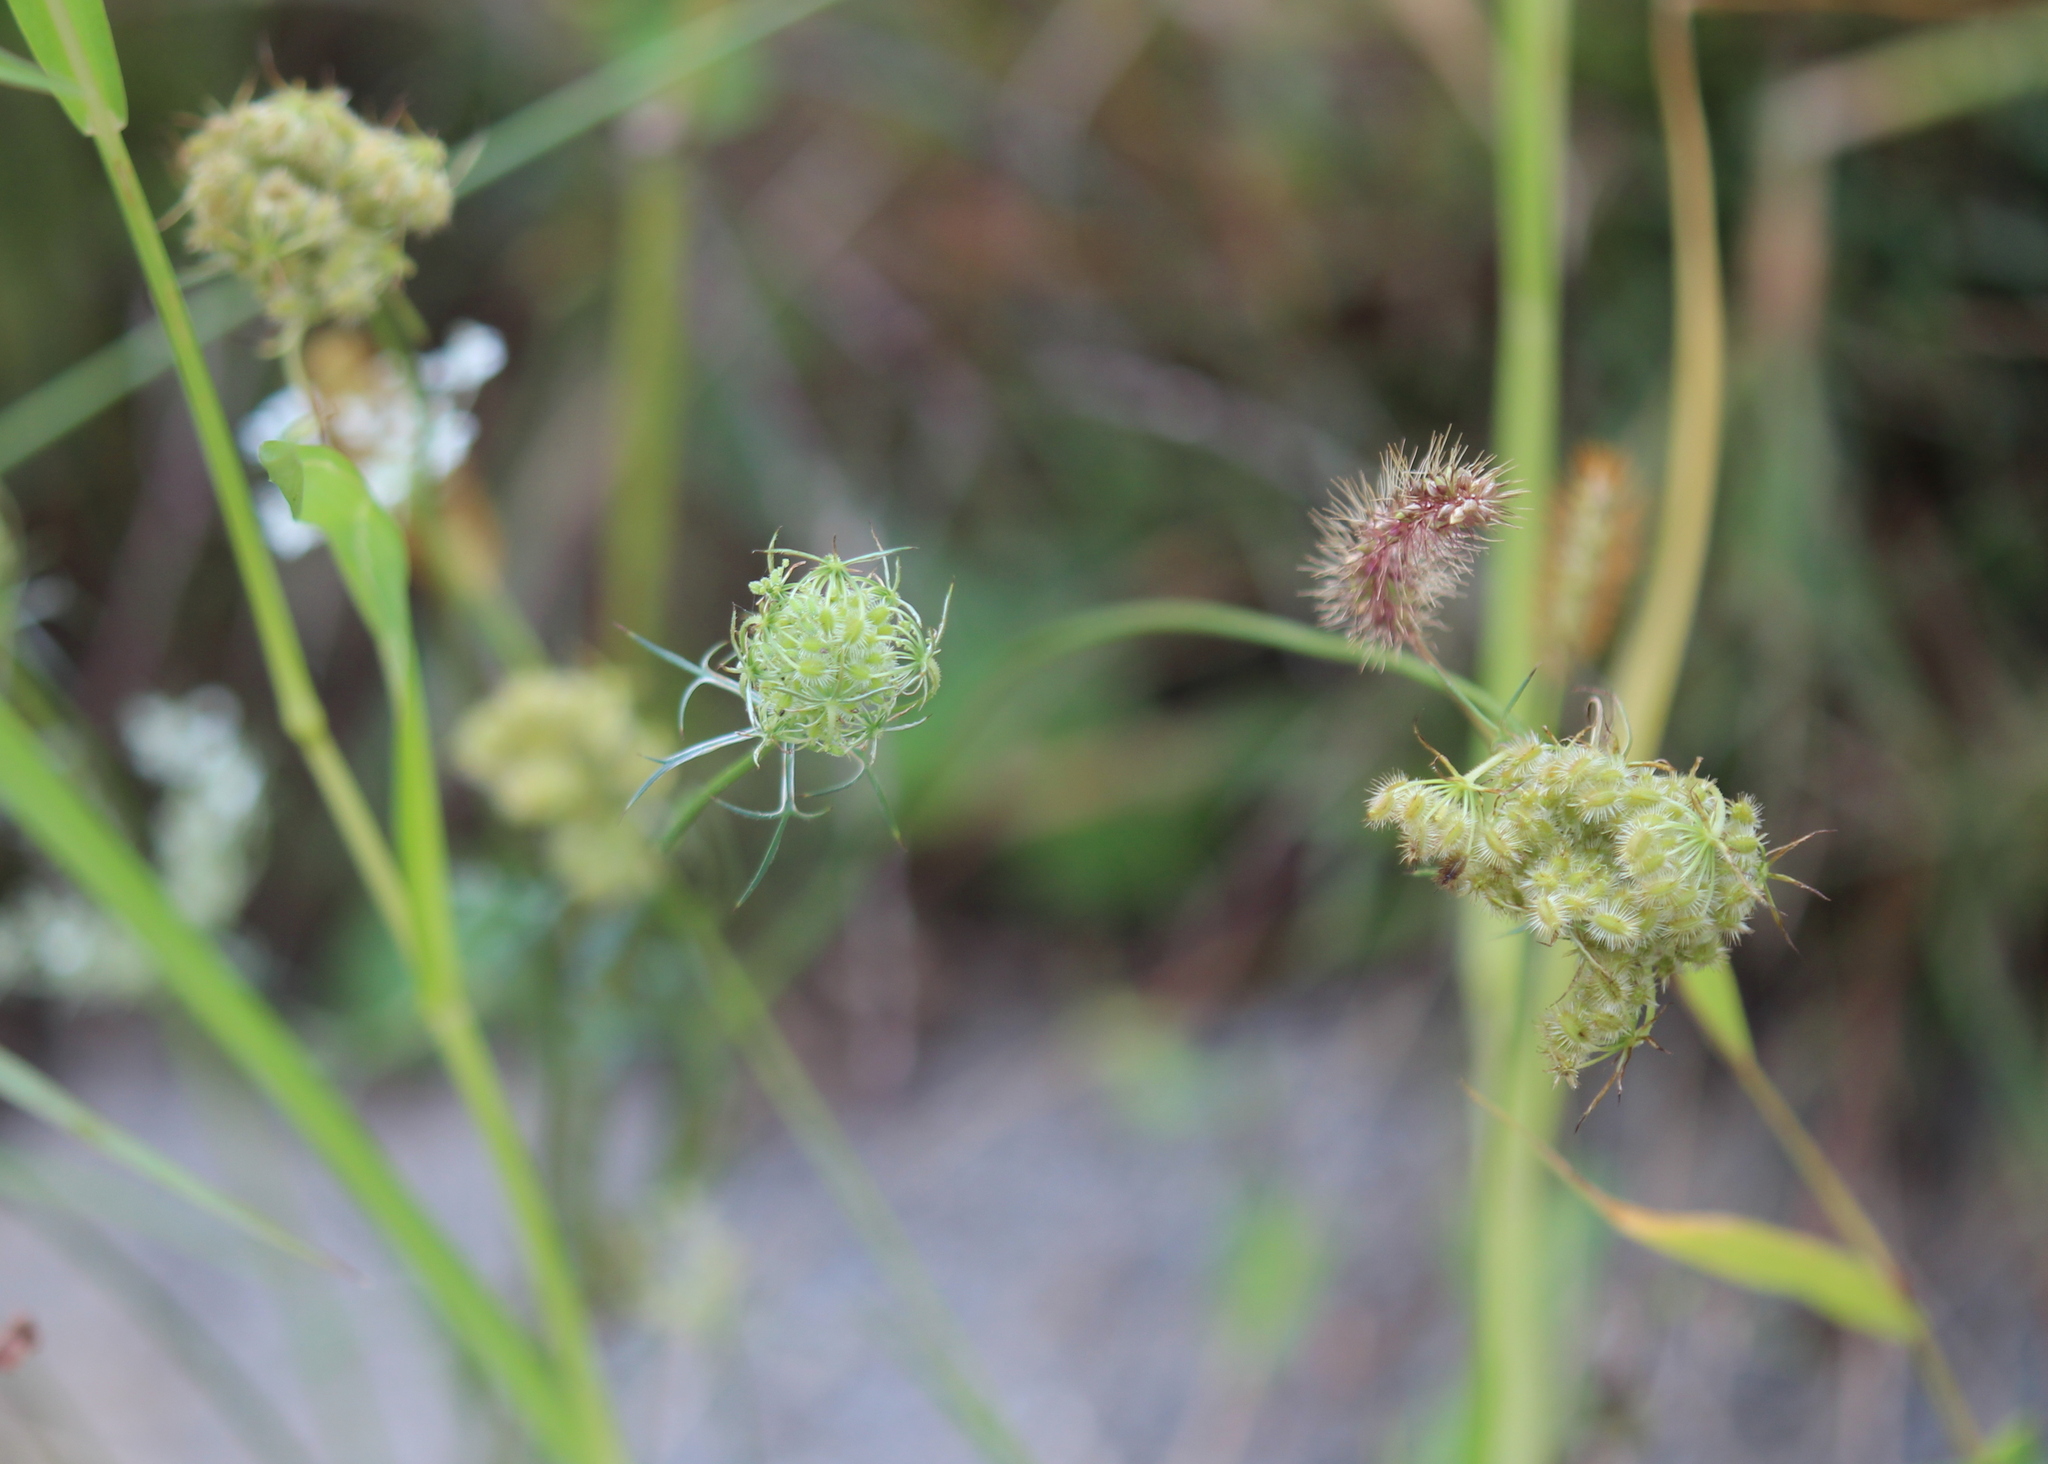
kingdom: Plantae
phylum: Tracheophyta
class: Magnoliopsida
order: Apiales
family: Apiaceae
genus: Daucus
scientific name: Daucus carota
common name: Wild carrot
